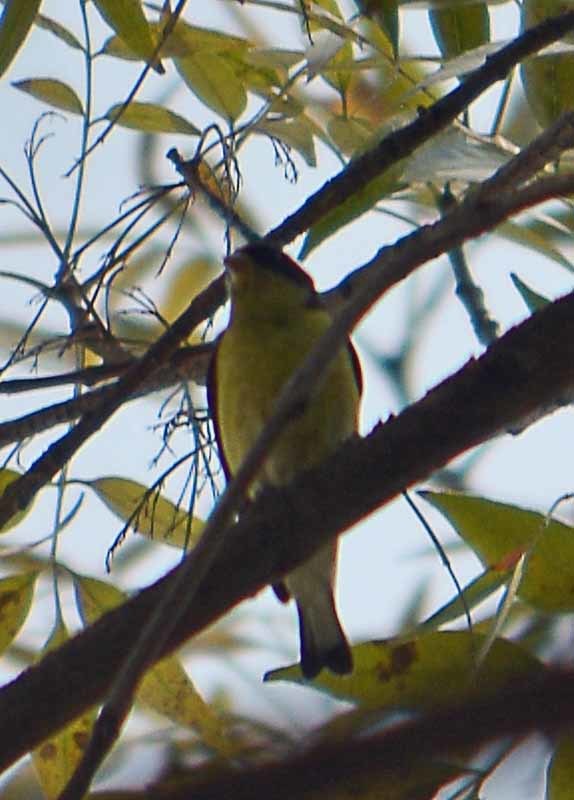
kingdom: Animalia
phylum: Chordata
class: Aves
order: Passeriformes
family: Fringillidae
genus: Spinus
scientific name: Spinus psaltria
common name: Lesser goldfinch
